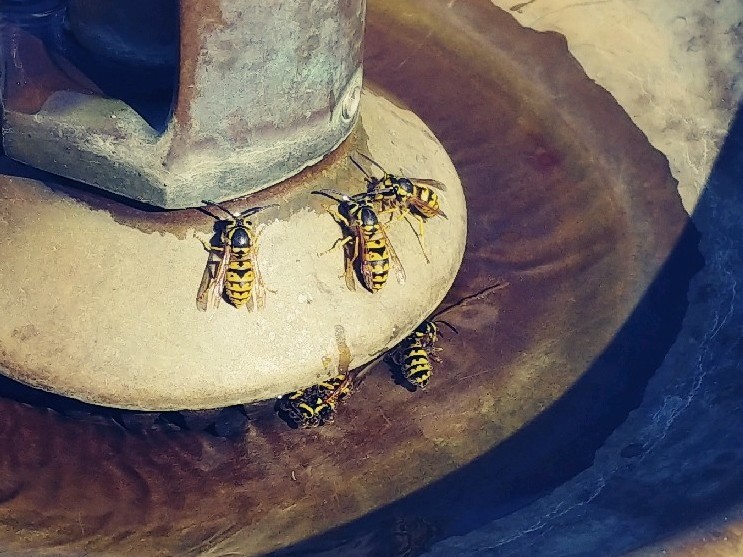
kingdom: Animalia
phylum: Arthropoda
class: Insecta
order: Hymenoptera
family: Vespidae
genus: Vespula
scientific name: Vespula pensylvanica
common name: Western yellowjacket
